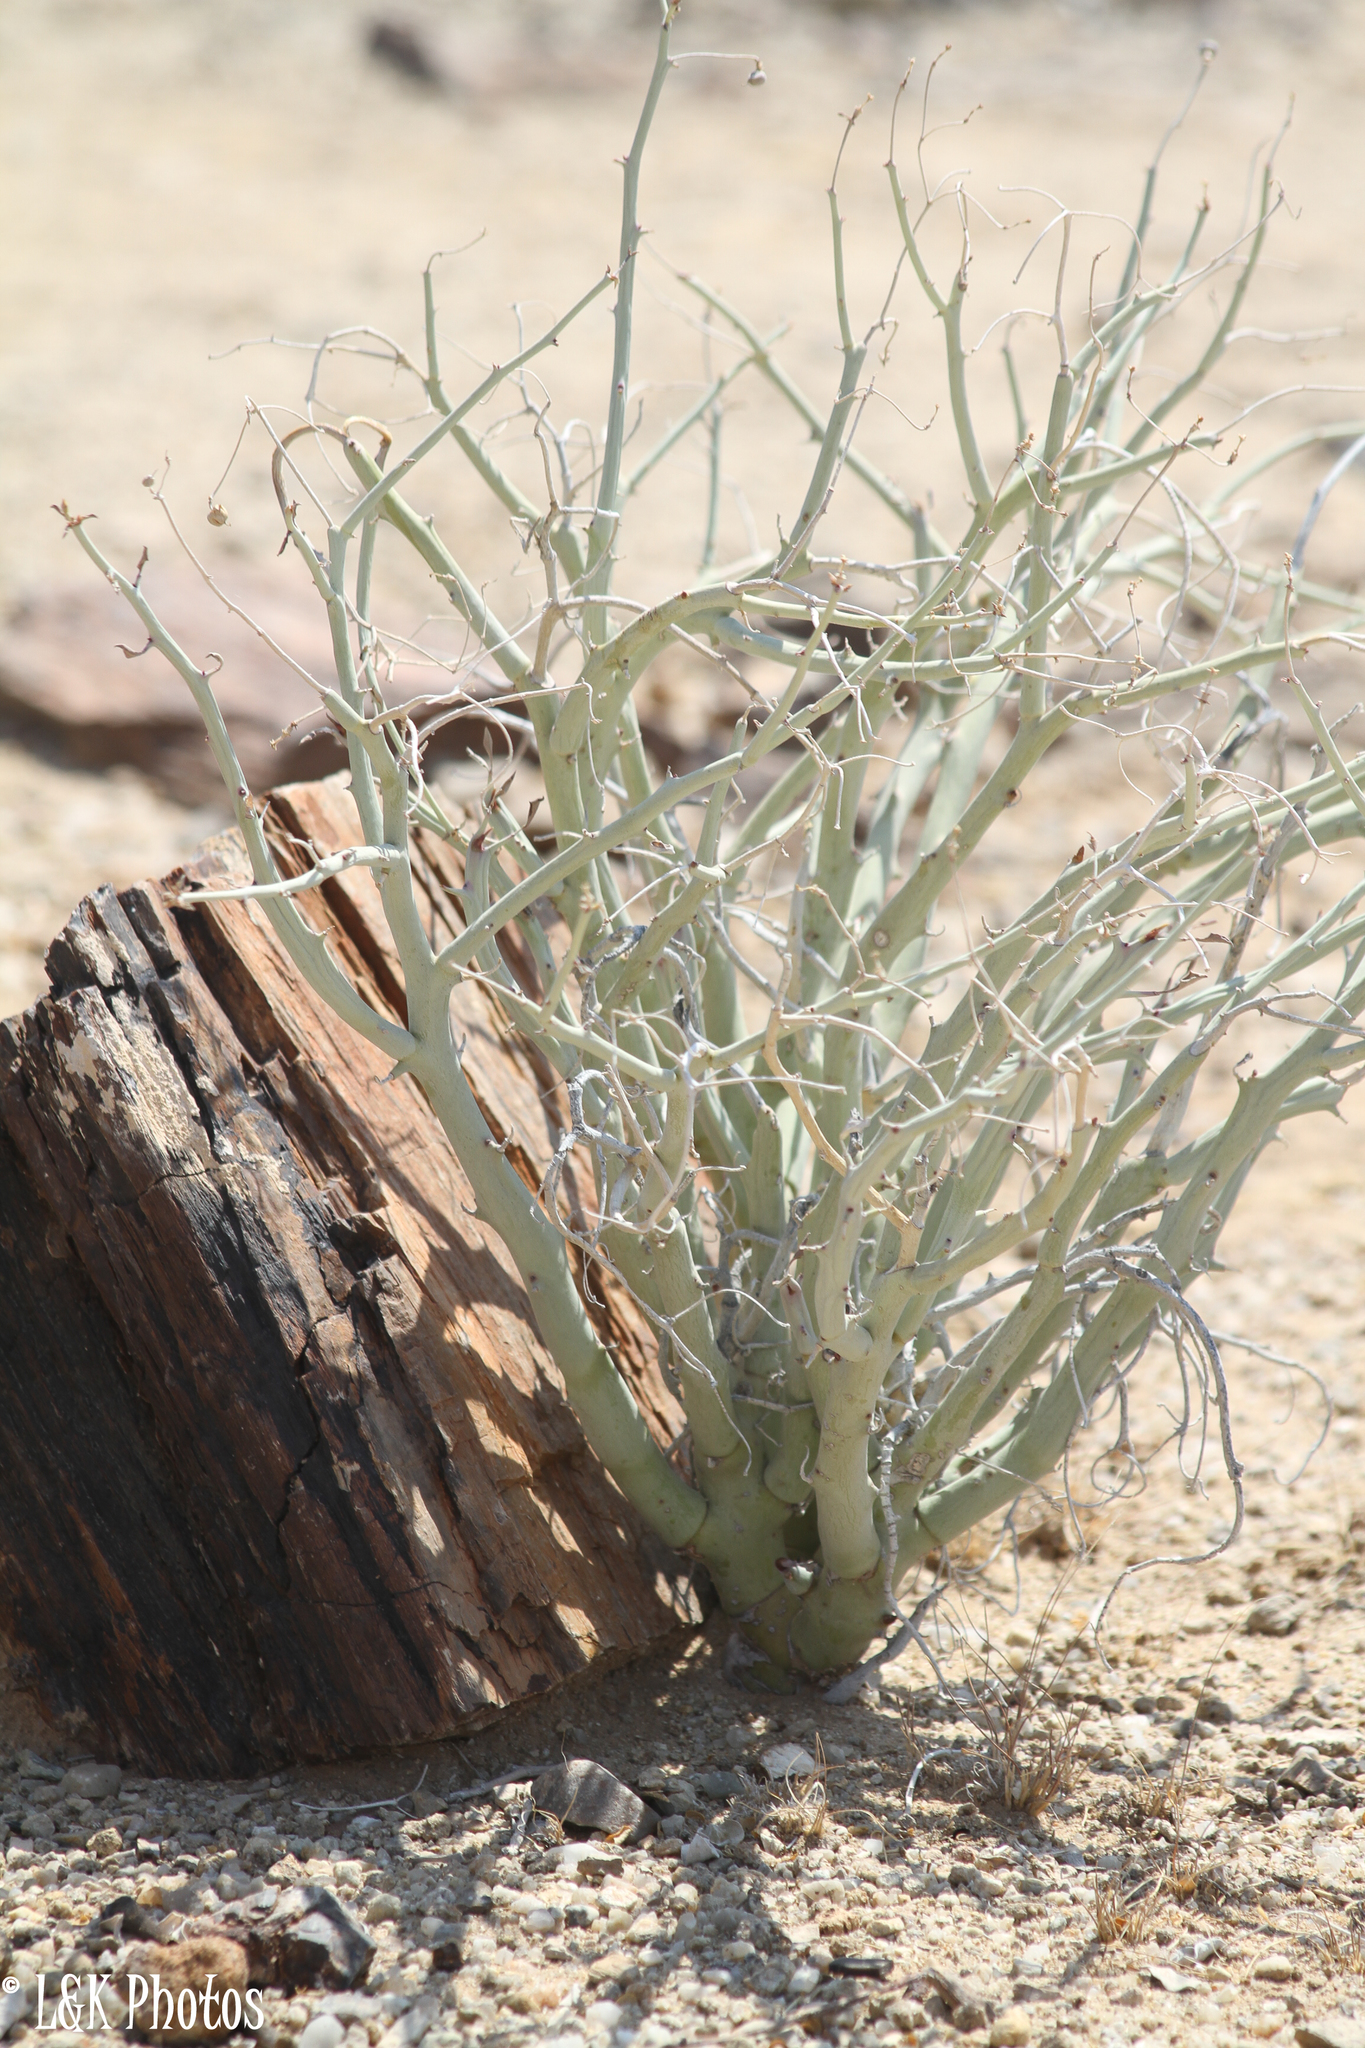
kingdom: Plantae
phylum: Tracheophyta
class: Magnoliopsida
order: Malpighiales
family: Euphorbiaceae
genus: Euphorbia
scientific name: Euphorbia gariepina
